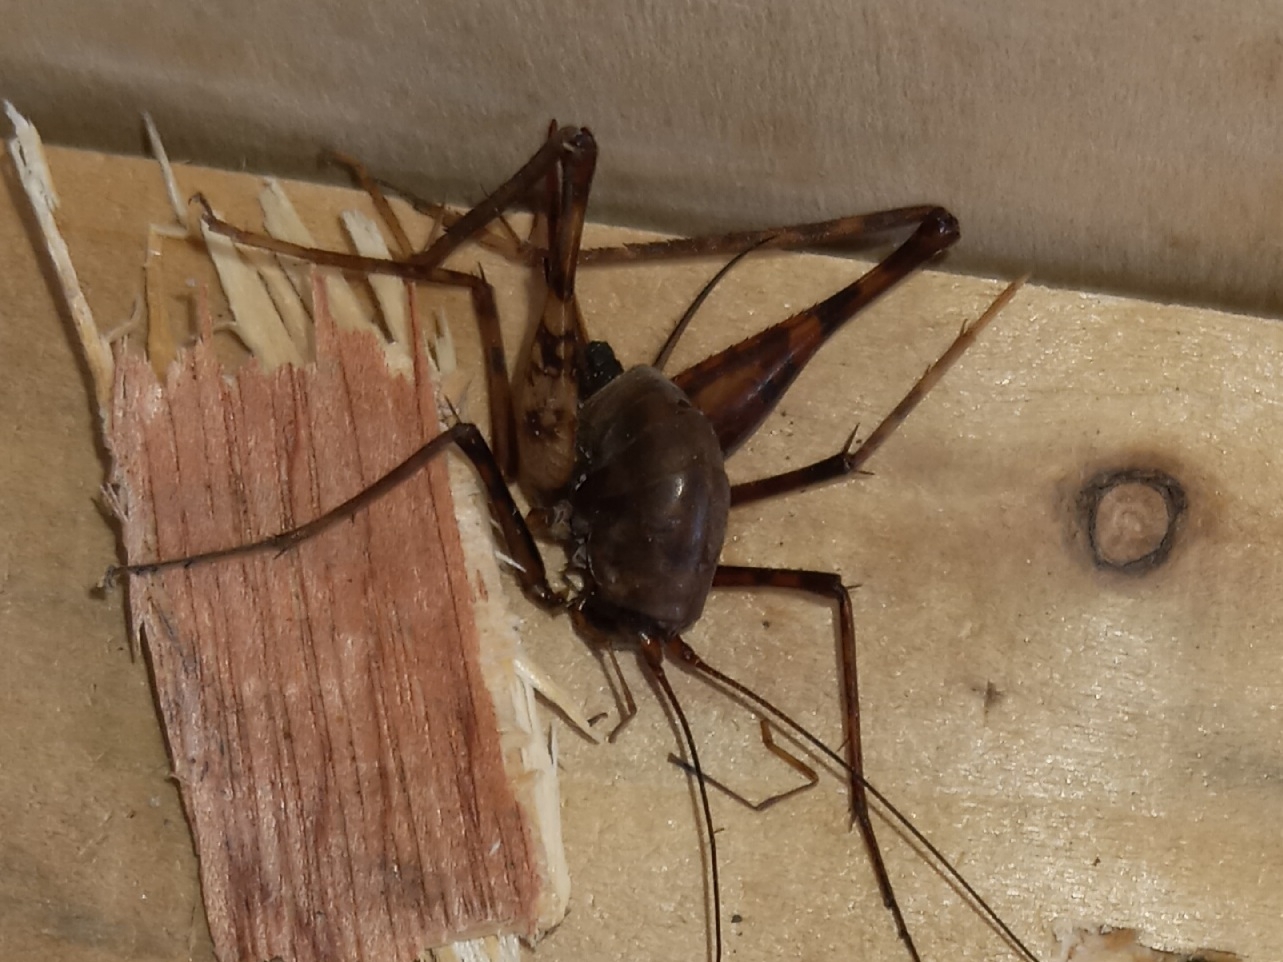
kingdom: Animalia
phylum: Arthropoda
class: Insecta
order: Orthoptera
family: Rhaphidophoridae
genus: Tachycines
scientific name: Tachycines asynamorus
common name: Greenhouse camel cricket
